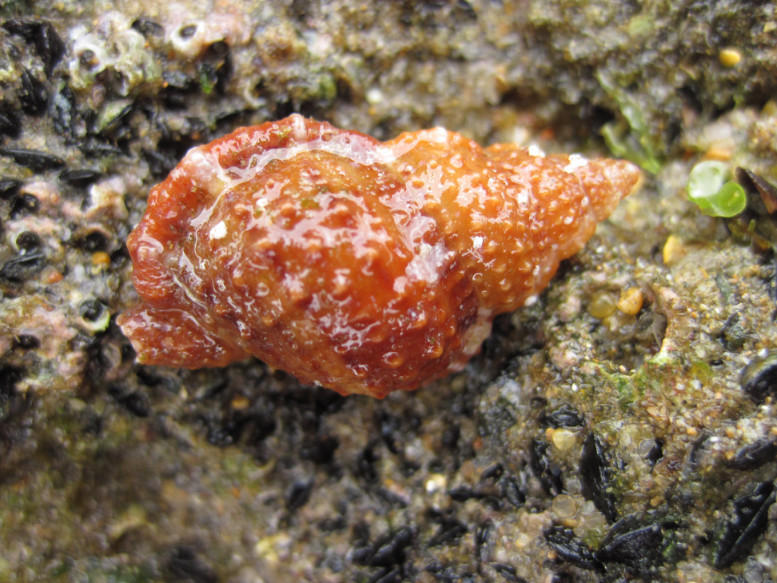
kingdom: Animalia
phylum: Mollusca
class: Gastropoda
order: Littorinimorpha
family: Bursidae
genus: Dulcerana
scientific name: Dulcerana granularis
